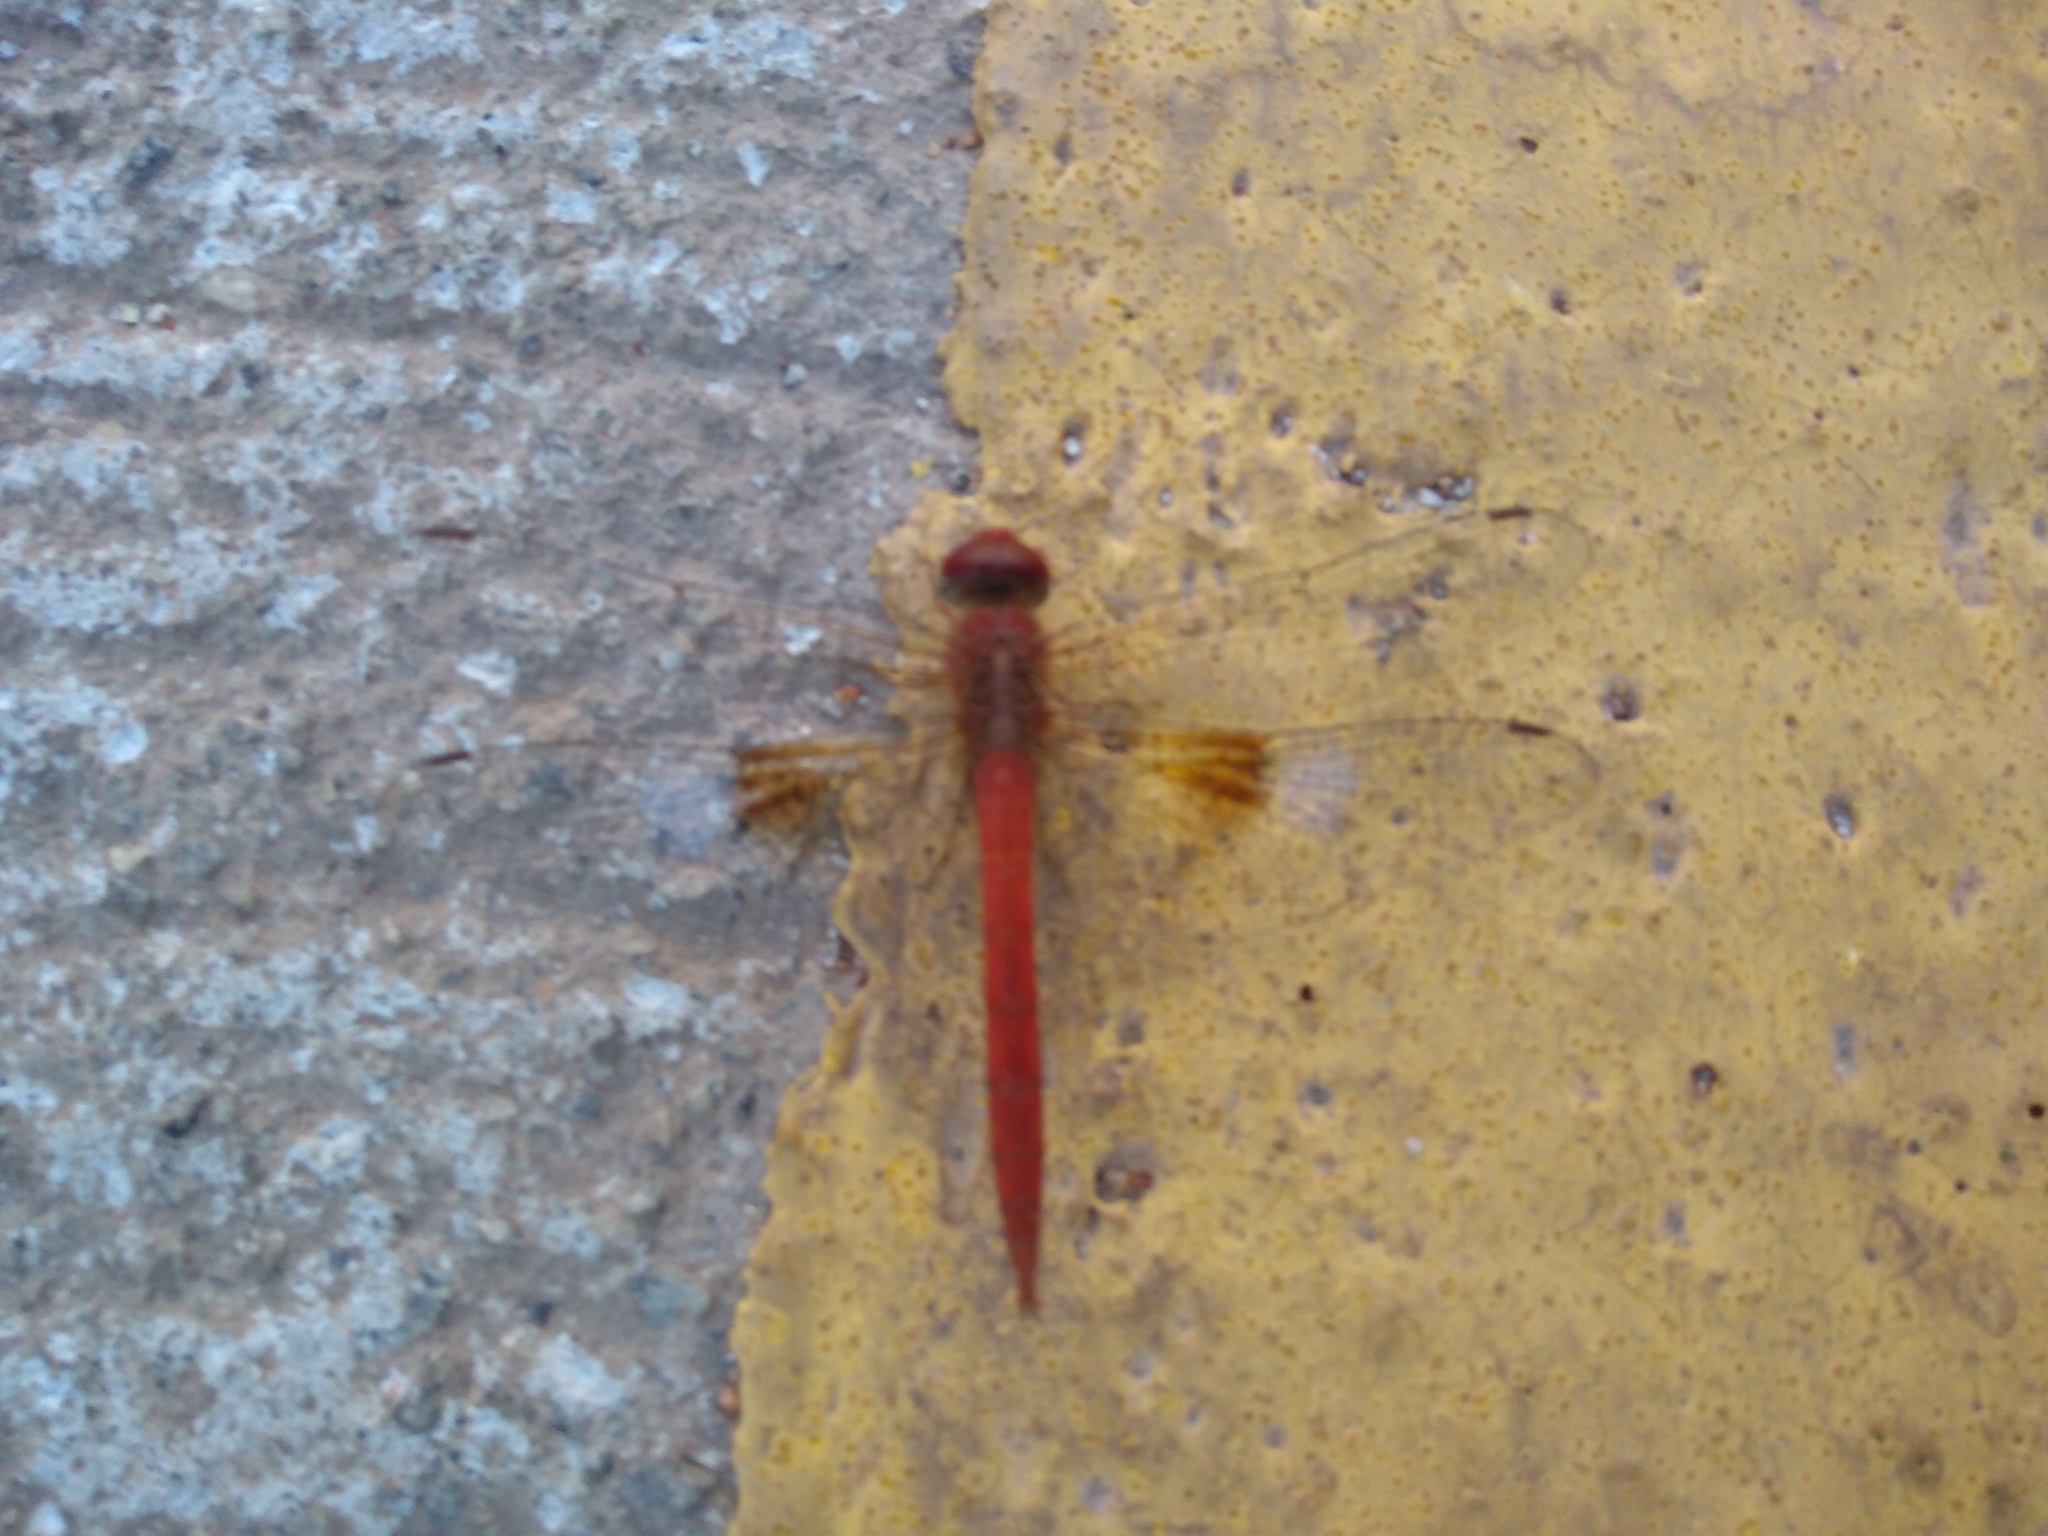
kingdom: Animalia
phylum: Arthropoda
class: Insecta
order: Odonata
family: Libellulidae
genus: Tholymis
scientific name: Tholymis tillarga
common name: Coral-tailed cloud wing
